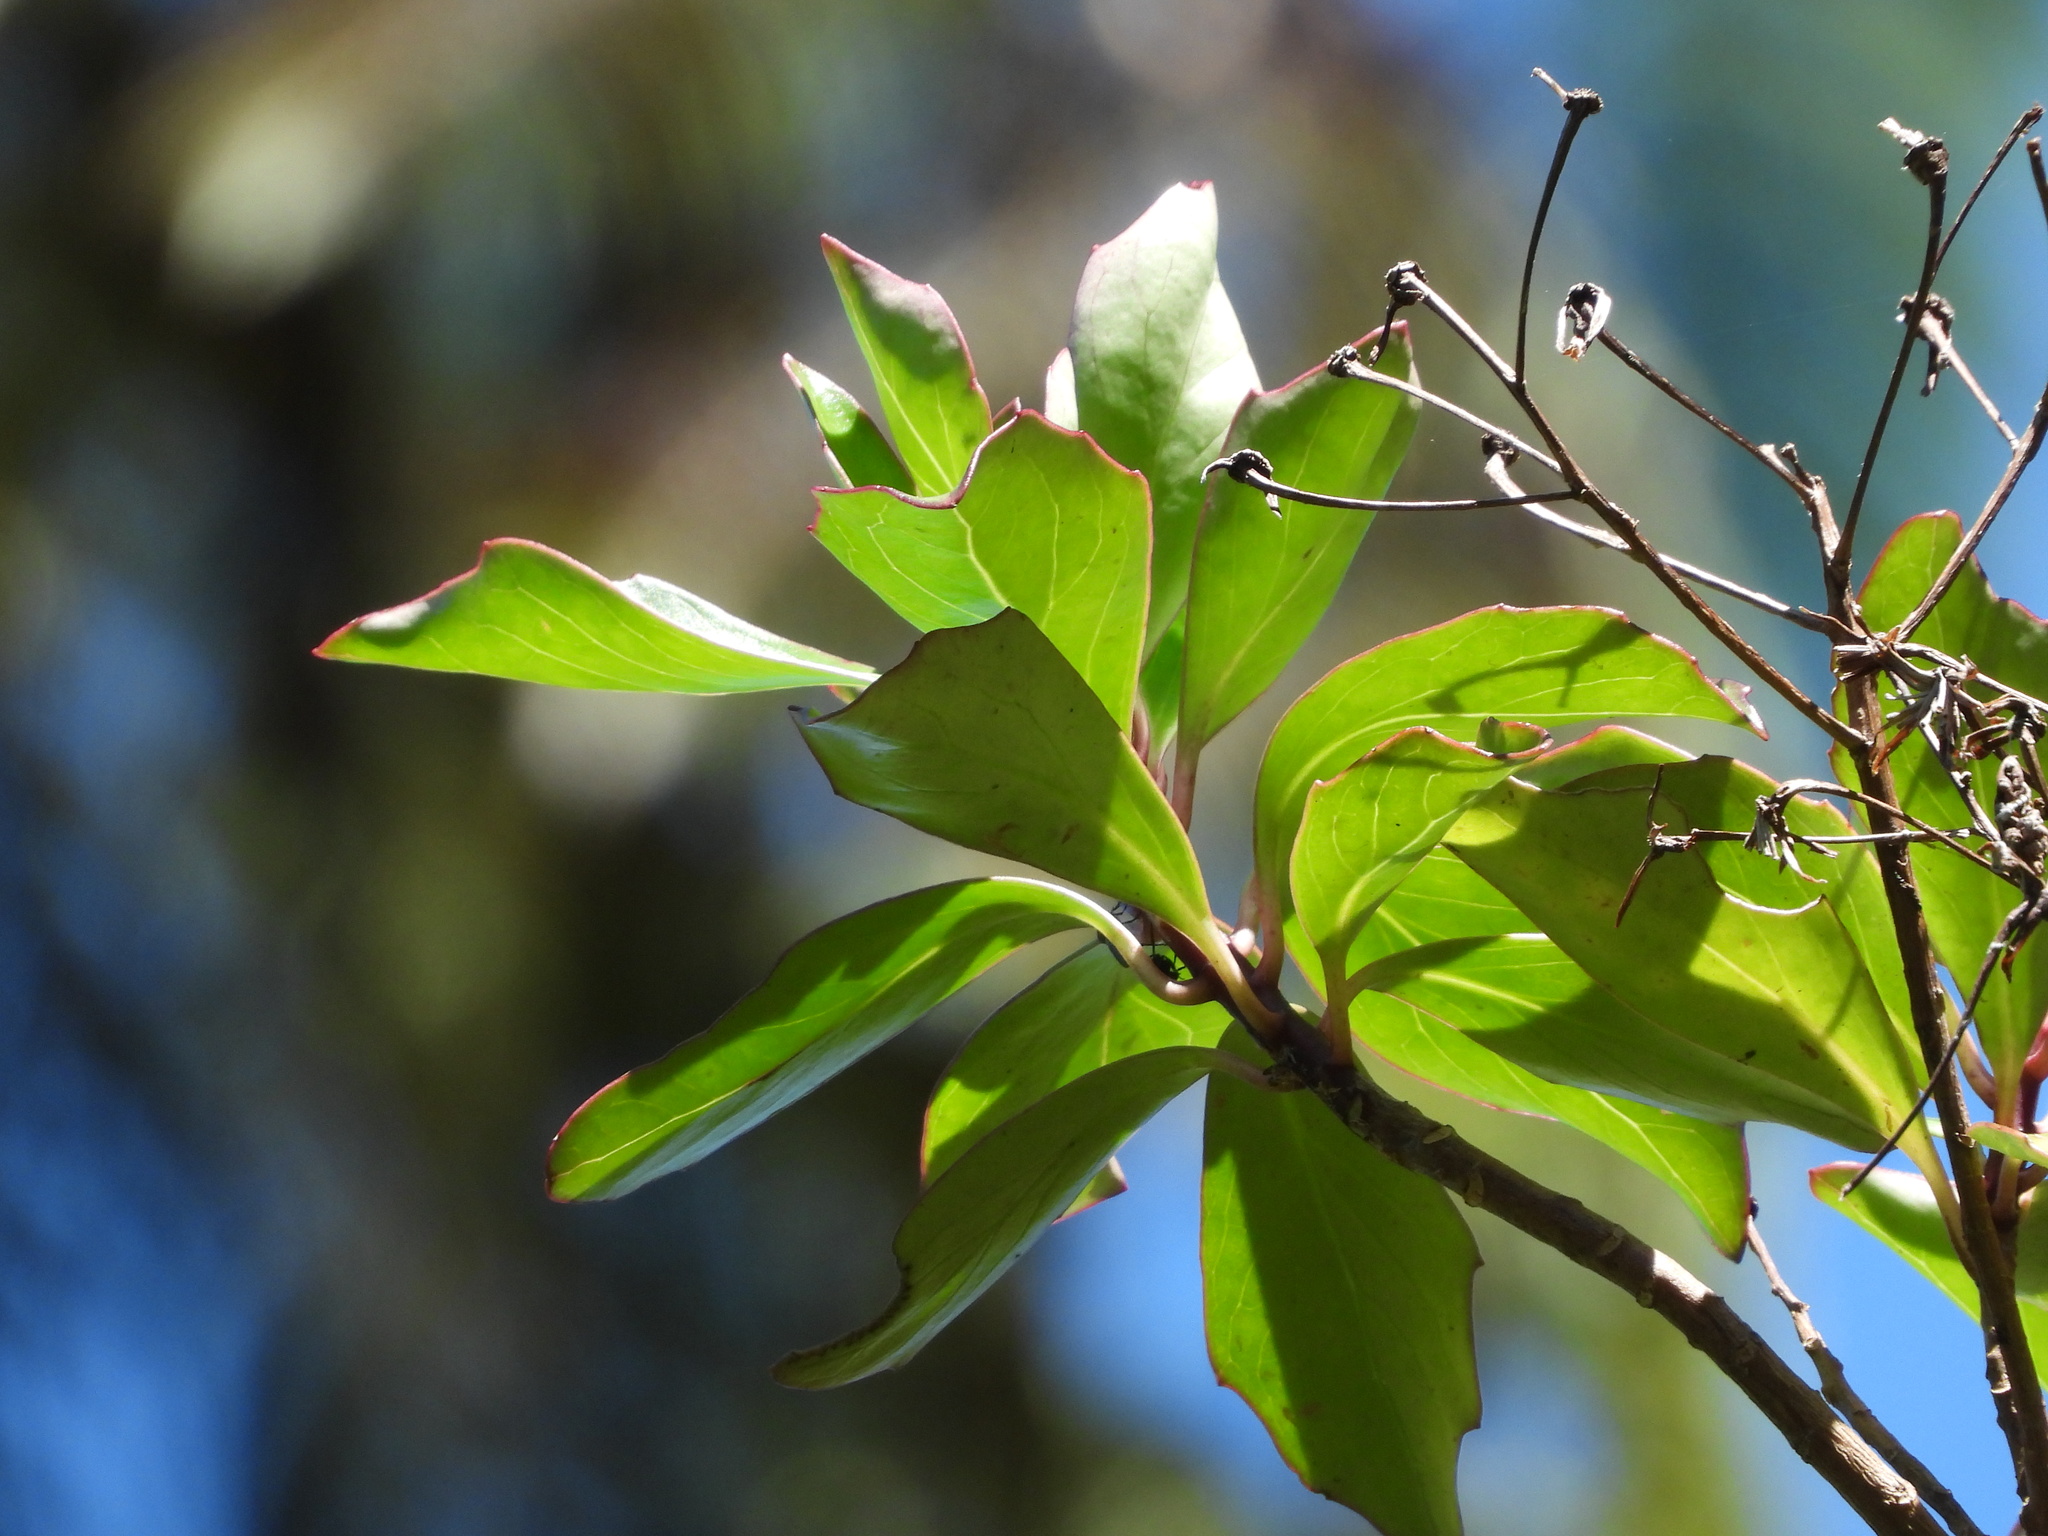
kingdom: Plantae
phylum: Tracheophyta
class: Magnoliopsida
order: Asterales
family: Asteraceae
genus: Brachyglottis
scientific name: Brachyglottis kirkii
